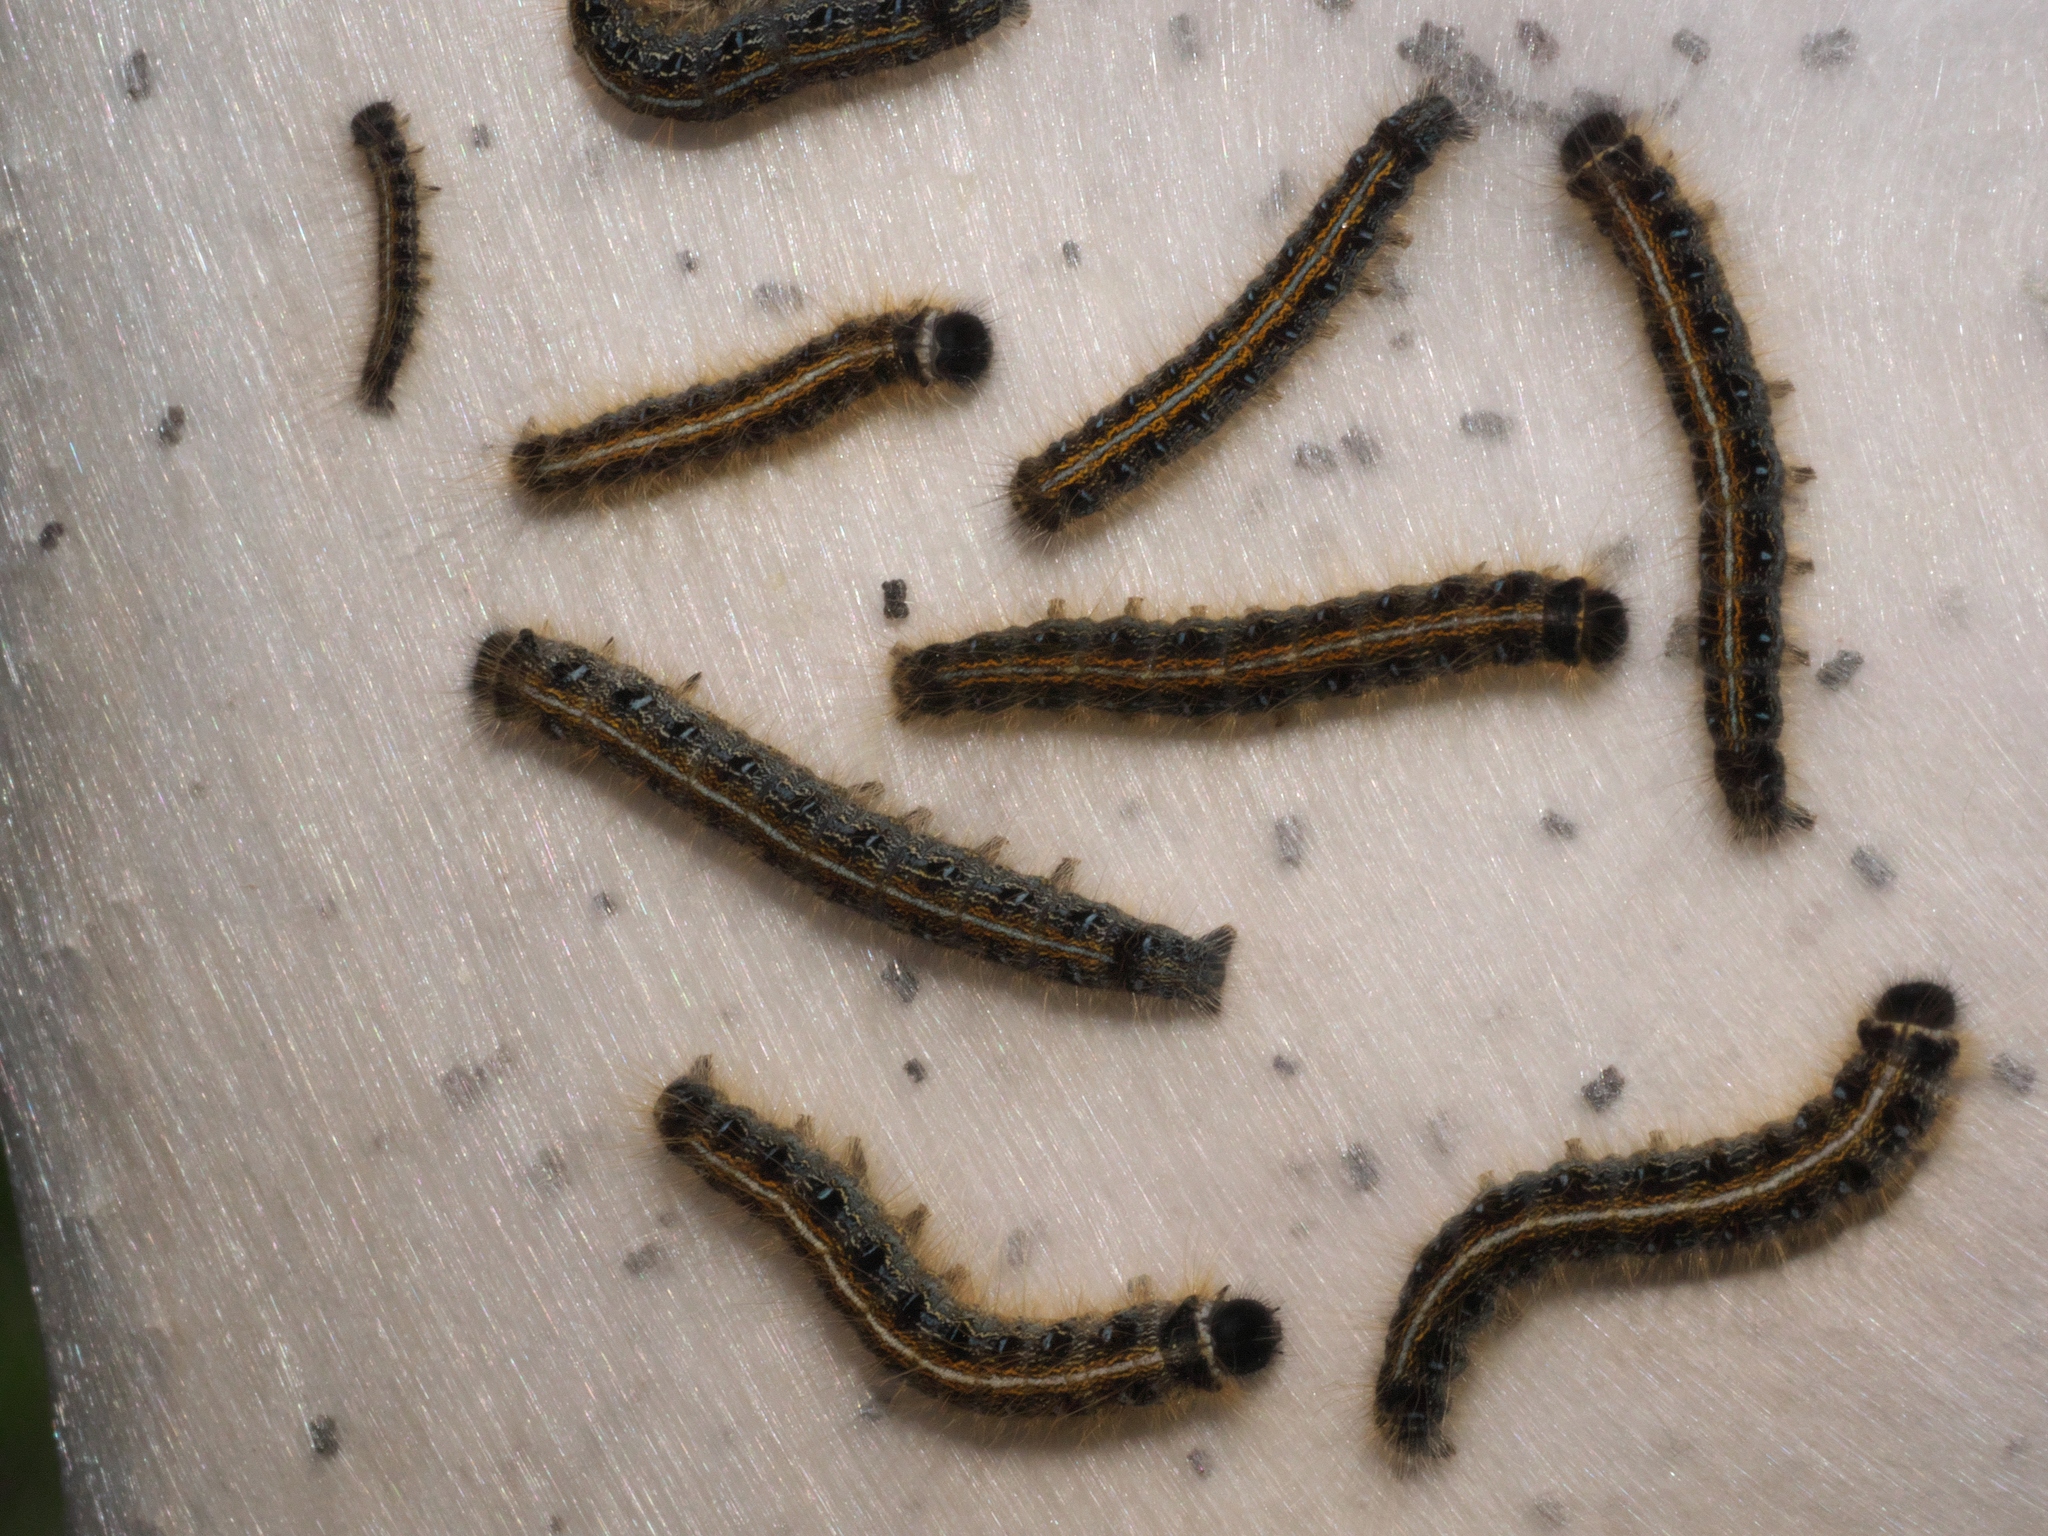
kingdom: Animalia
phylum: Arthropoda
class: Insecta
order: Lepidoptera
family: Lasiocampidae
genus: Malacosoma
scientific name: Malacosoma americana
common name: Eastern tent caterpillar moth
